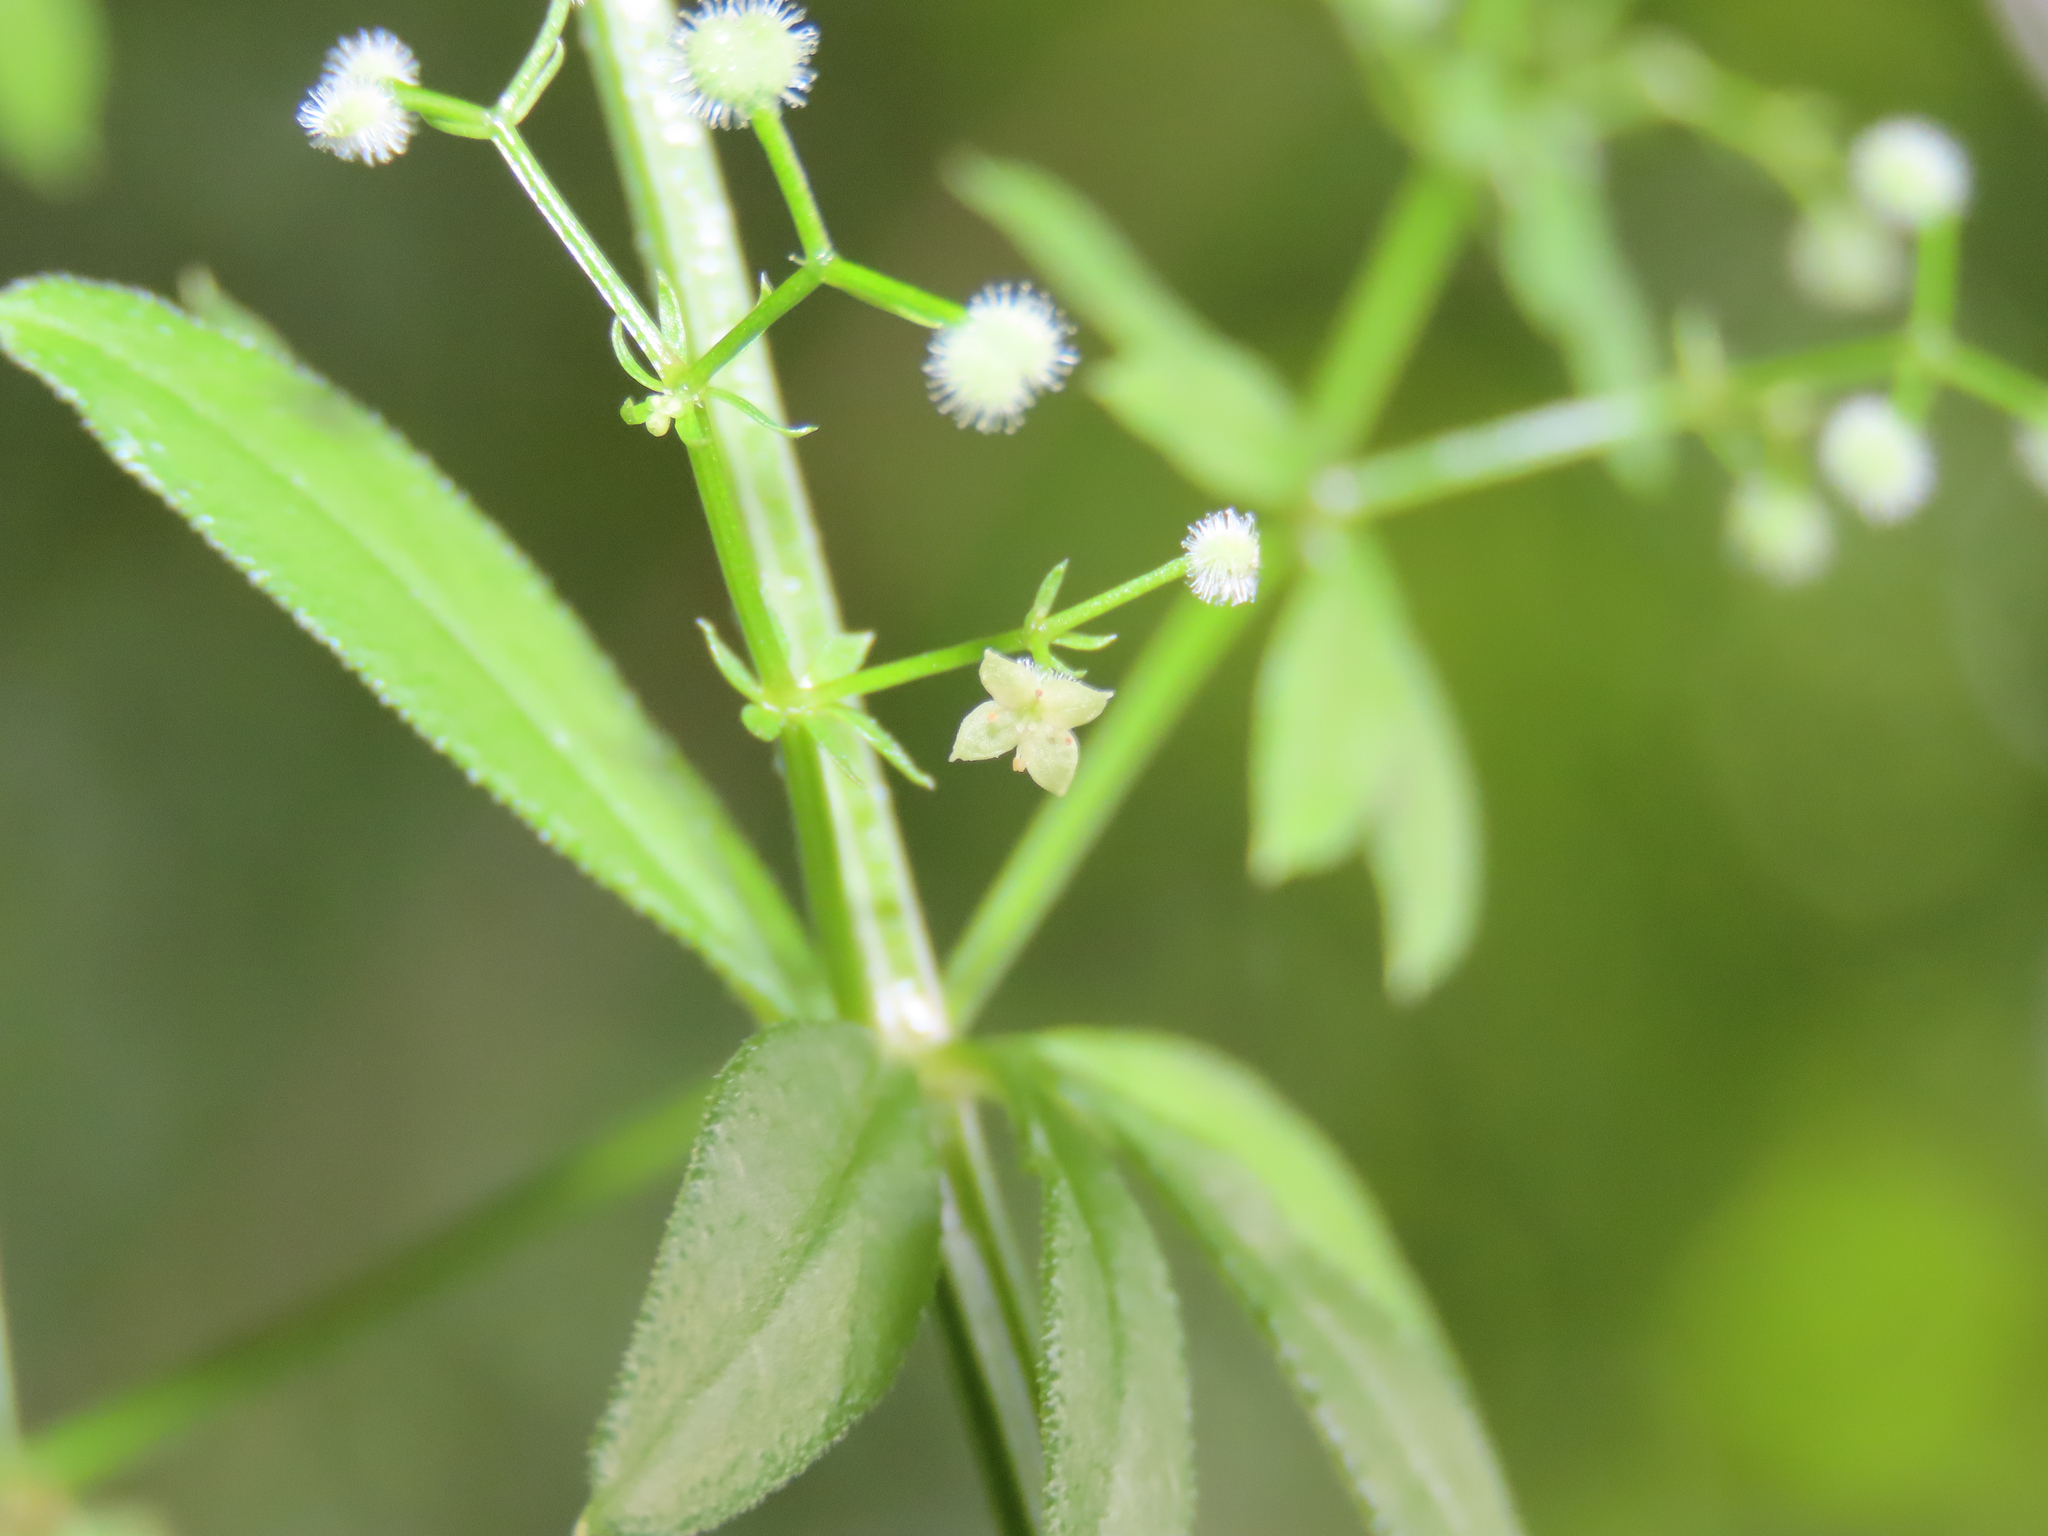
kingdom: Plantae
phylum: Tracheophyta
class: Magnoliopsida
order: Gentianales
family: Rubiaceae
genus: Galium
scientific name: Galium triflorum
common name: Fragrant bedstraw
